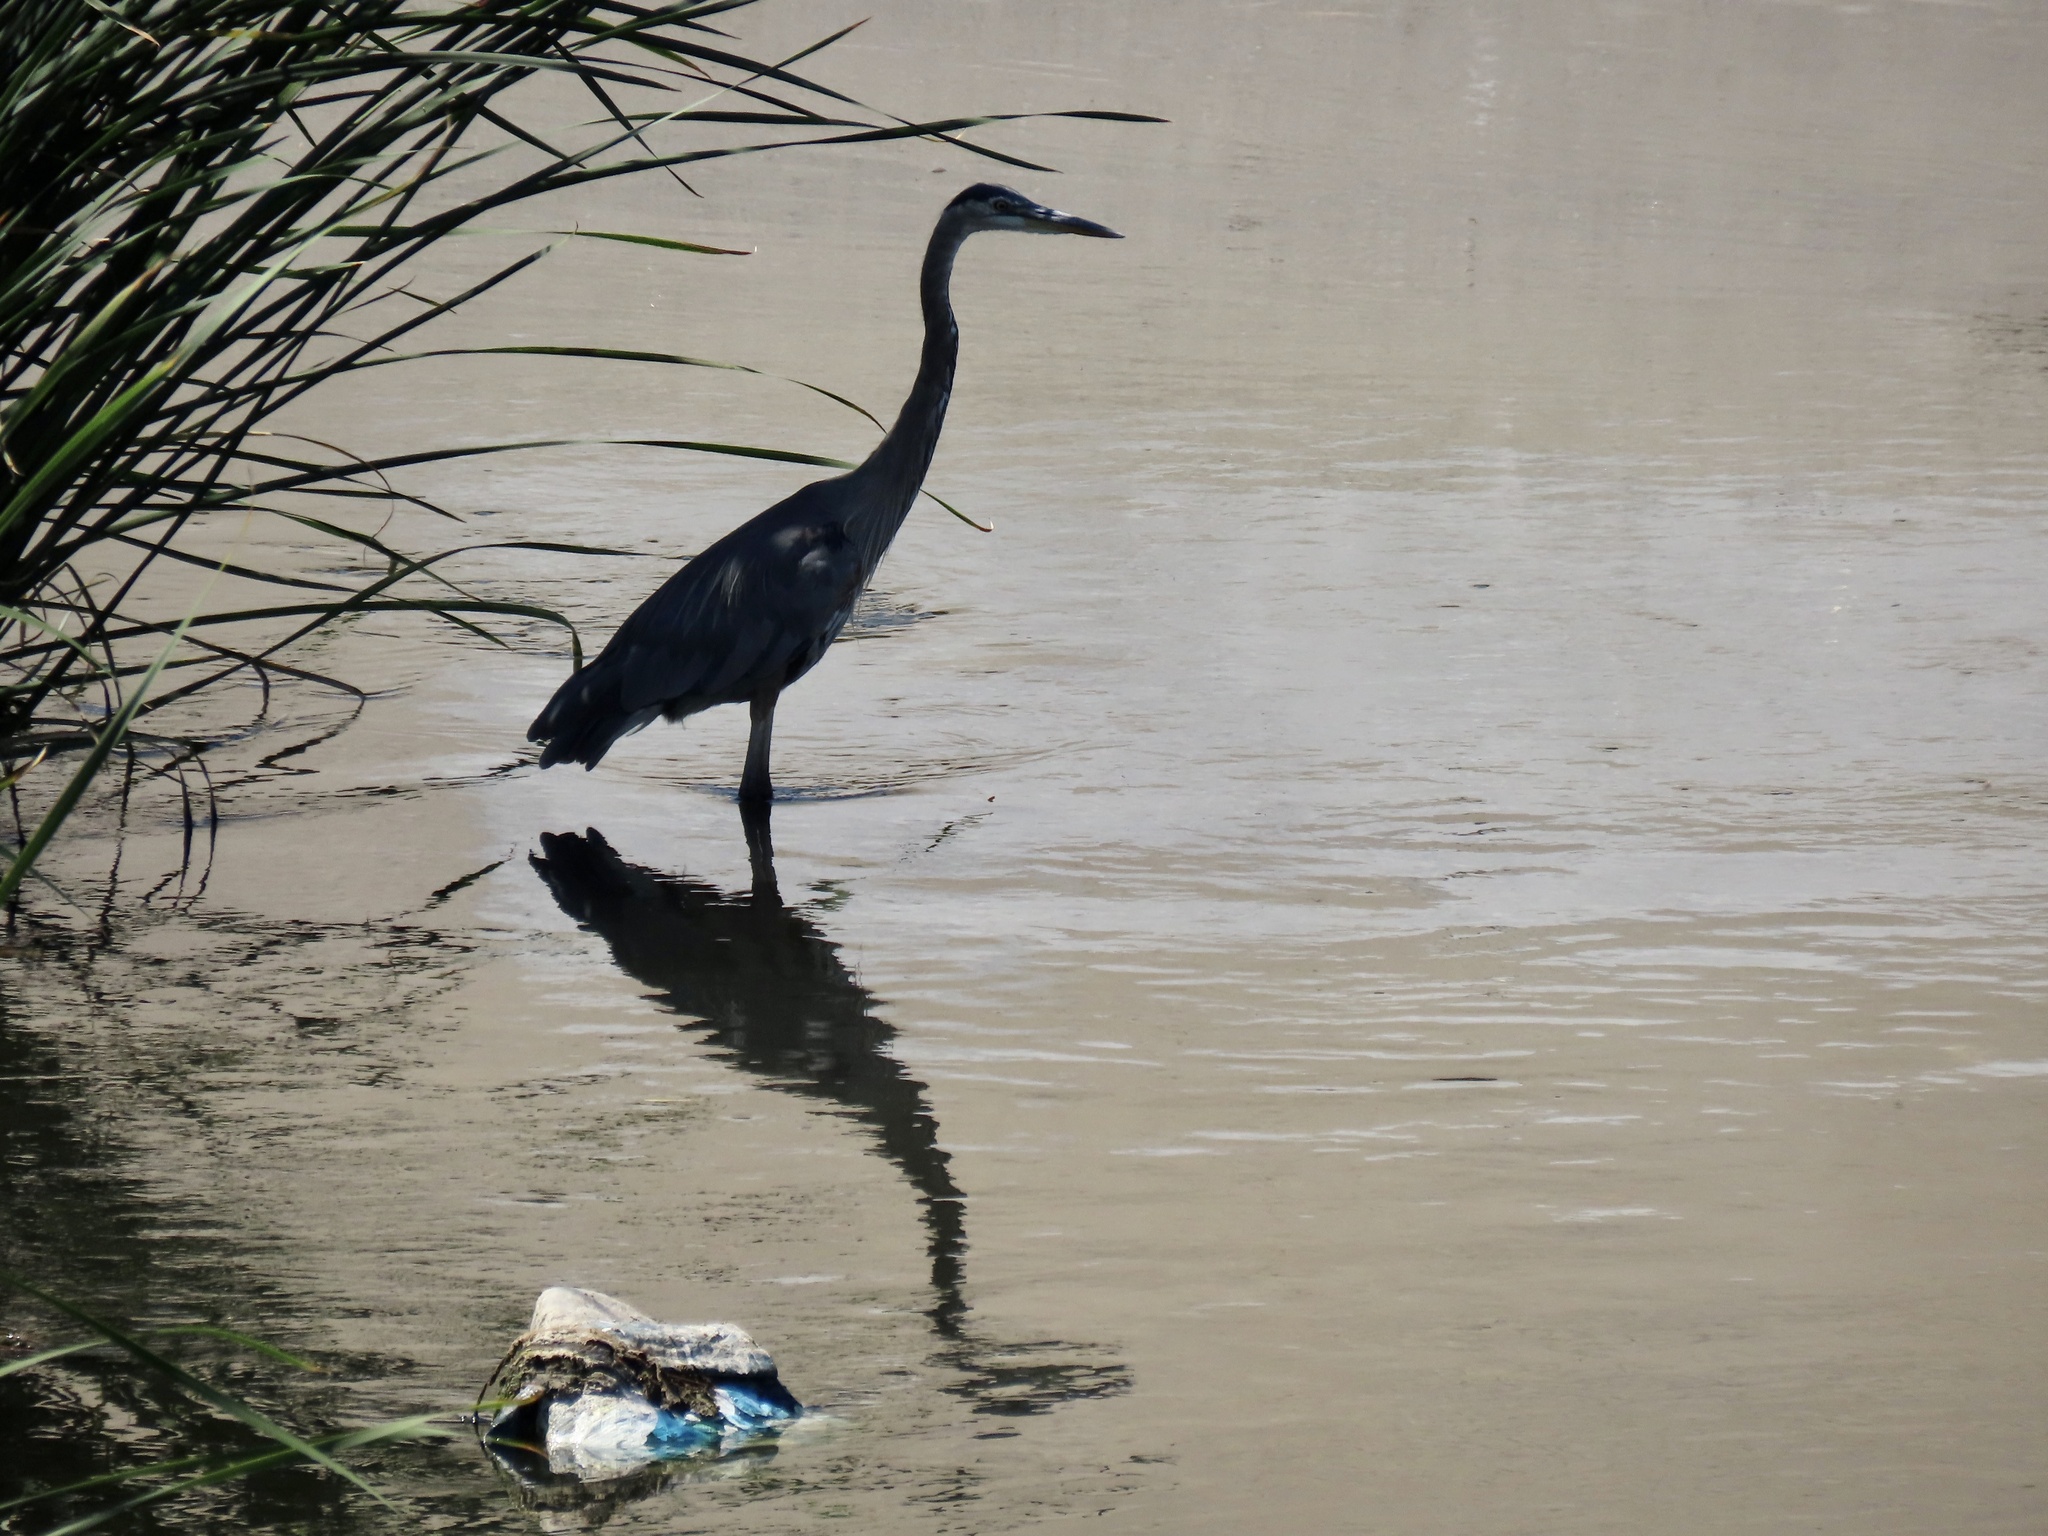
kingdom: Animalia
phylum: Chordata
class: Aves
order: Pelecaniformes
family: Ardeidae
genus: Ardea
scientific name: Ardea herodias
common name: Great blue heron
